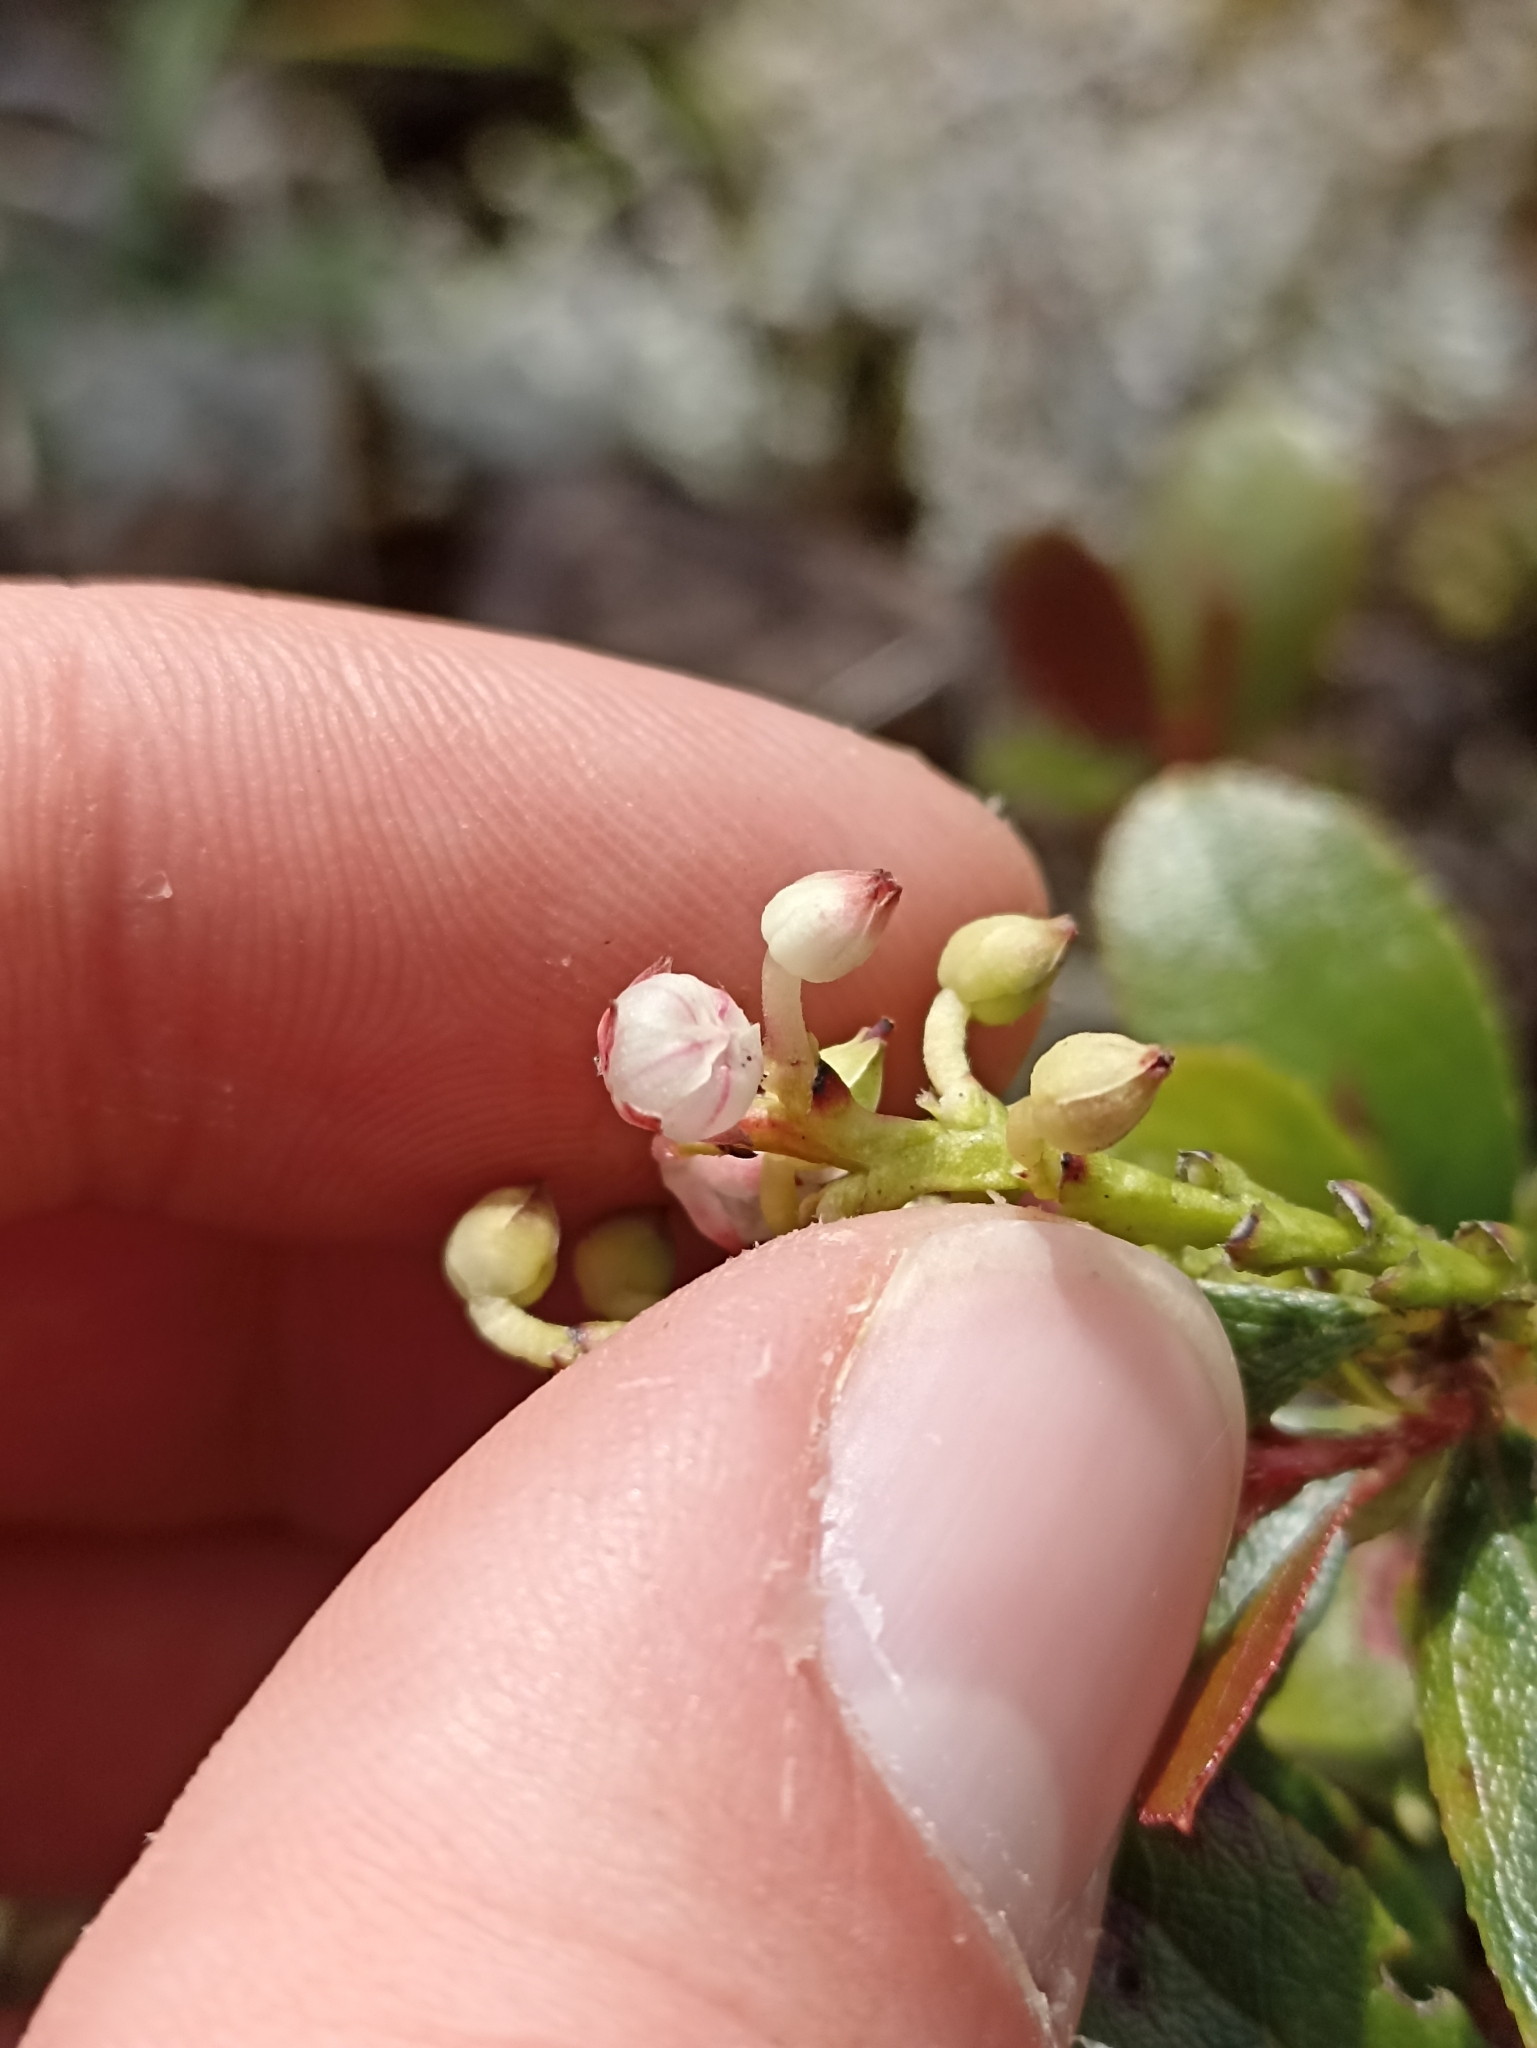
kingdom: Plantae
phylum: Tracheophyta
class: Magnoliopsida
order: Ericales
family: Ericaceae
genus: Gaultheria
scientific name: Gaultheria paniculata
